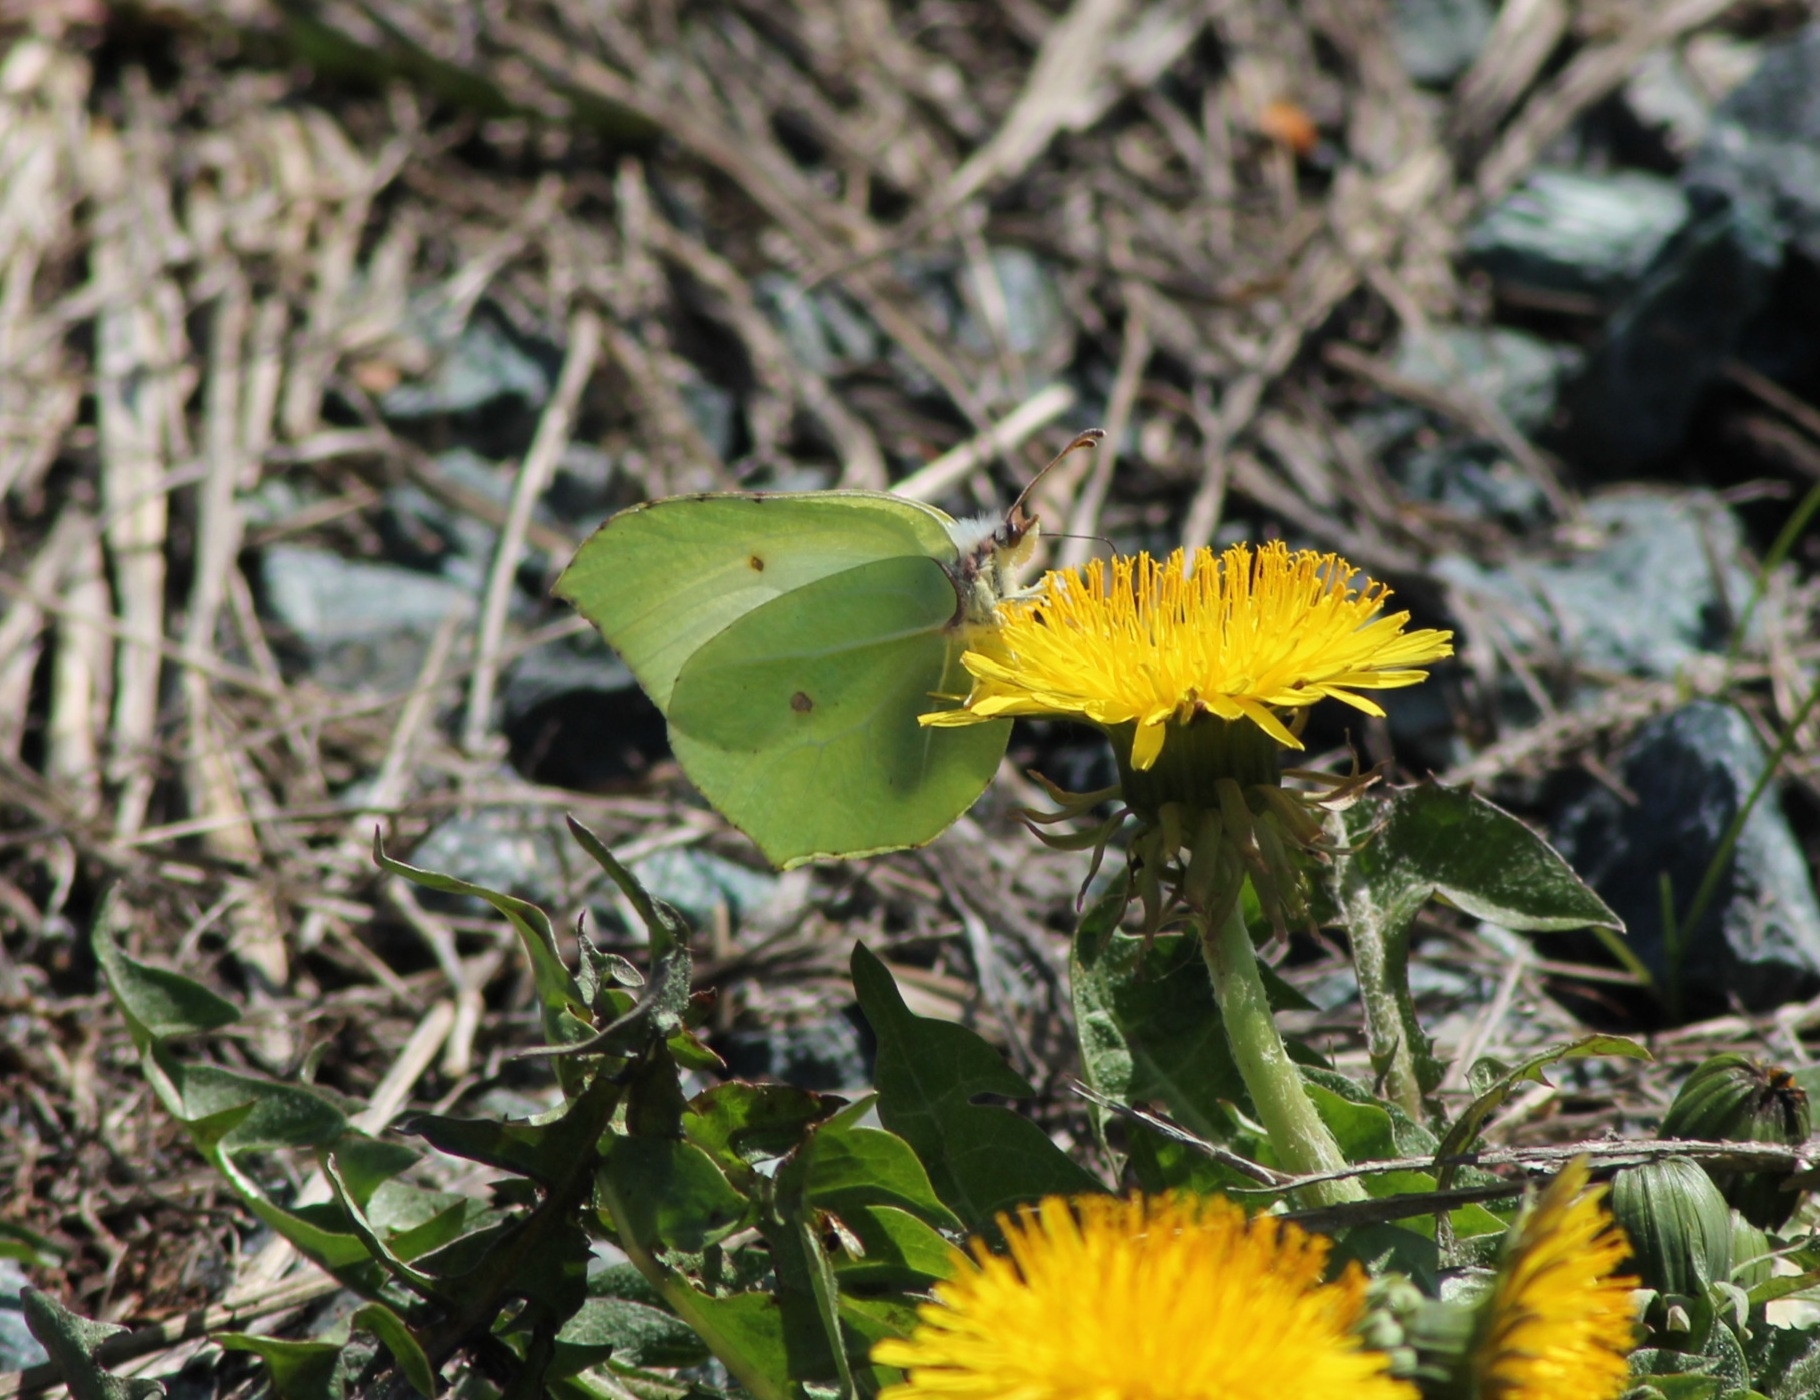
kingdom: Animalia
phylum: Arthropoda
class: Insecta
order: Lepidoptera
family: Pieridae
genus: Gonepteryx
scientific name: Gonepteryx rhamni
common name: Brimstone
